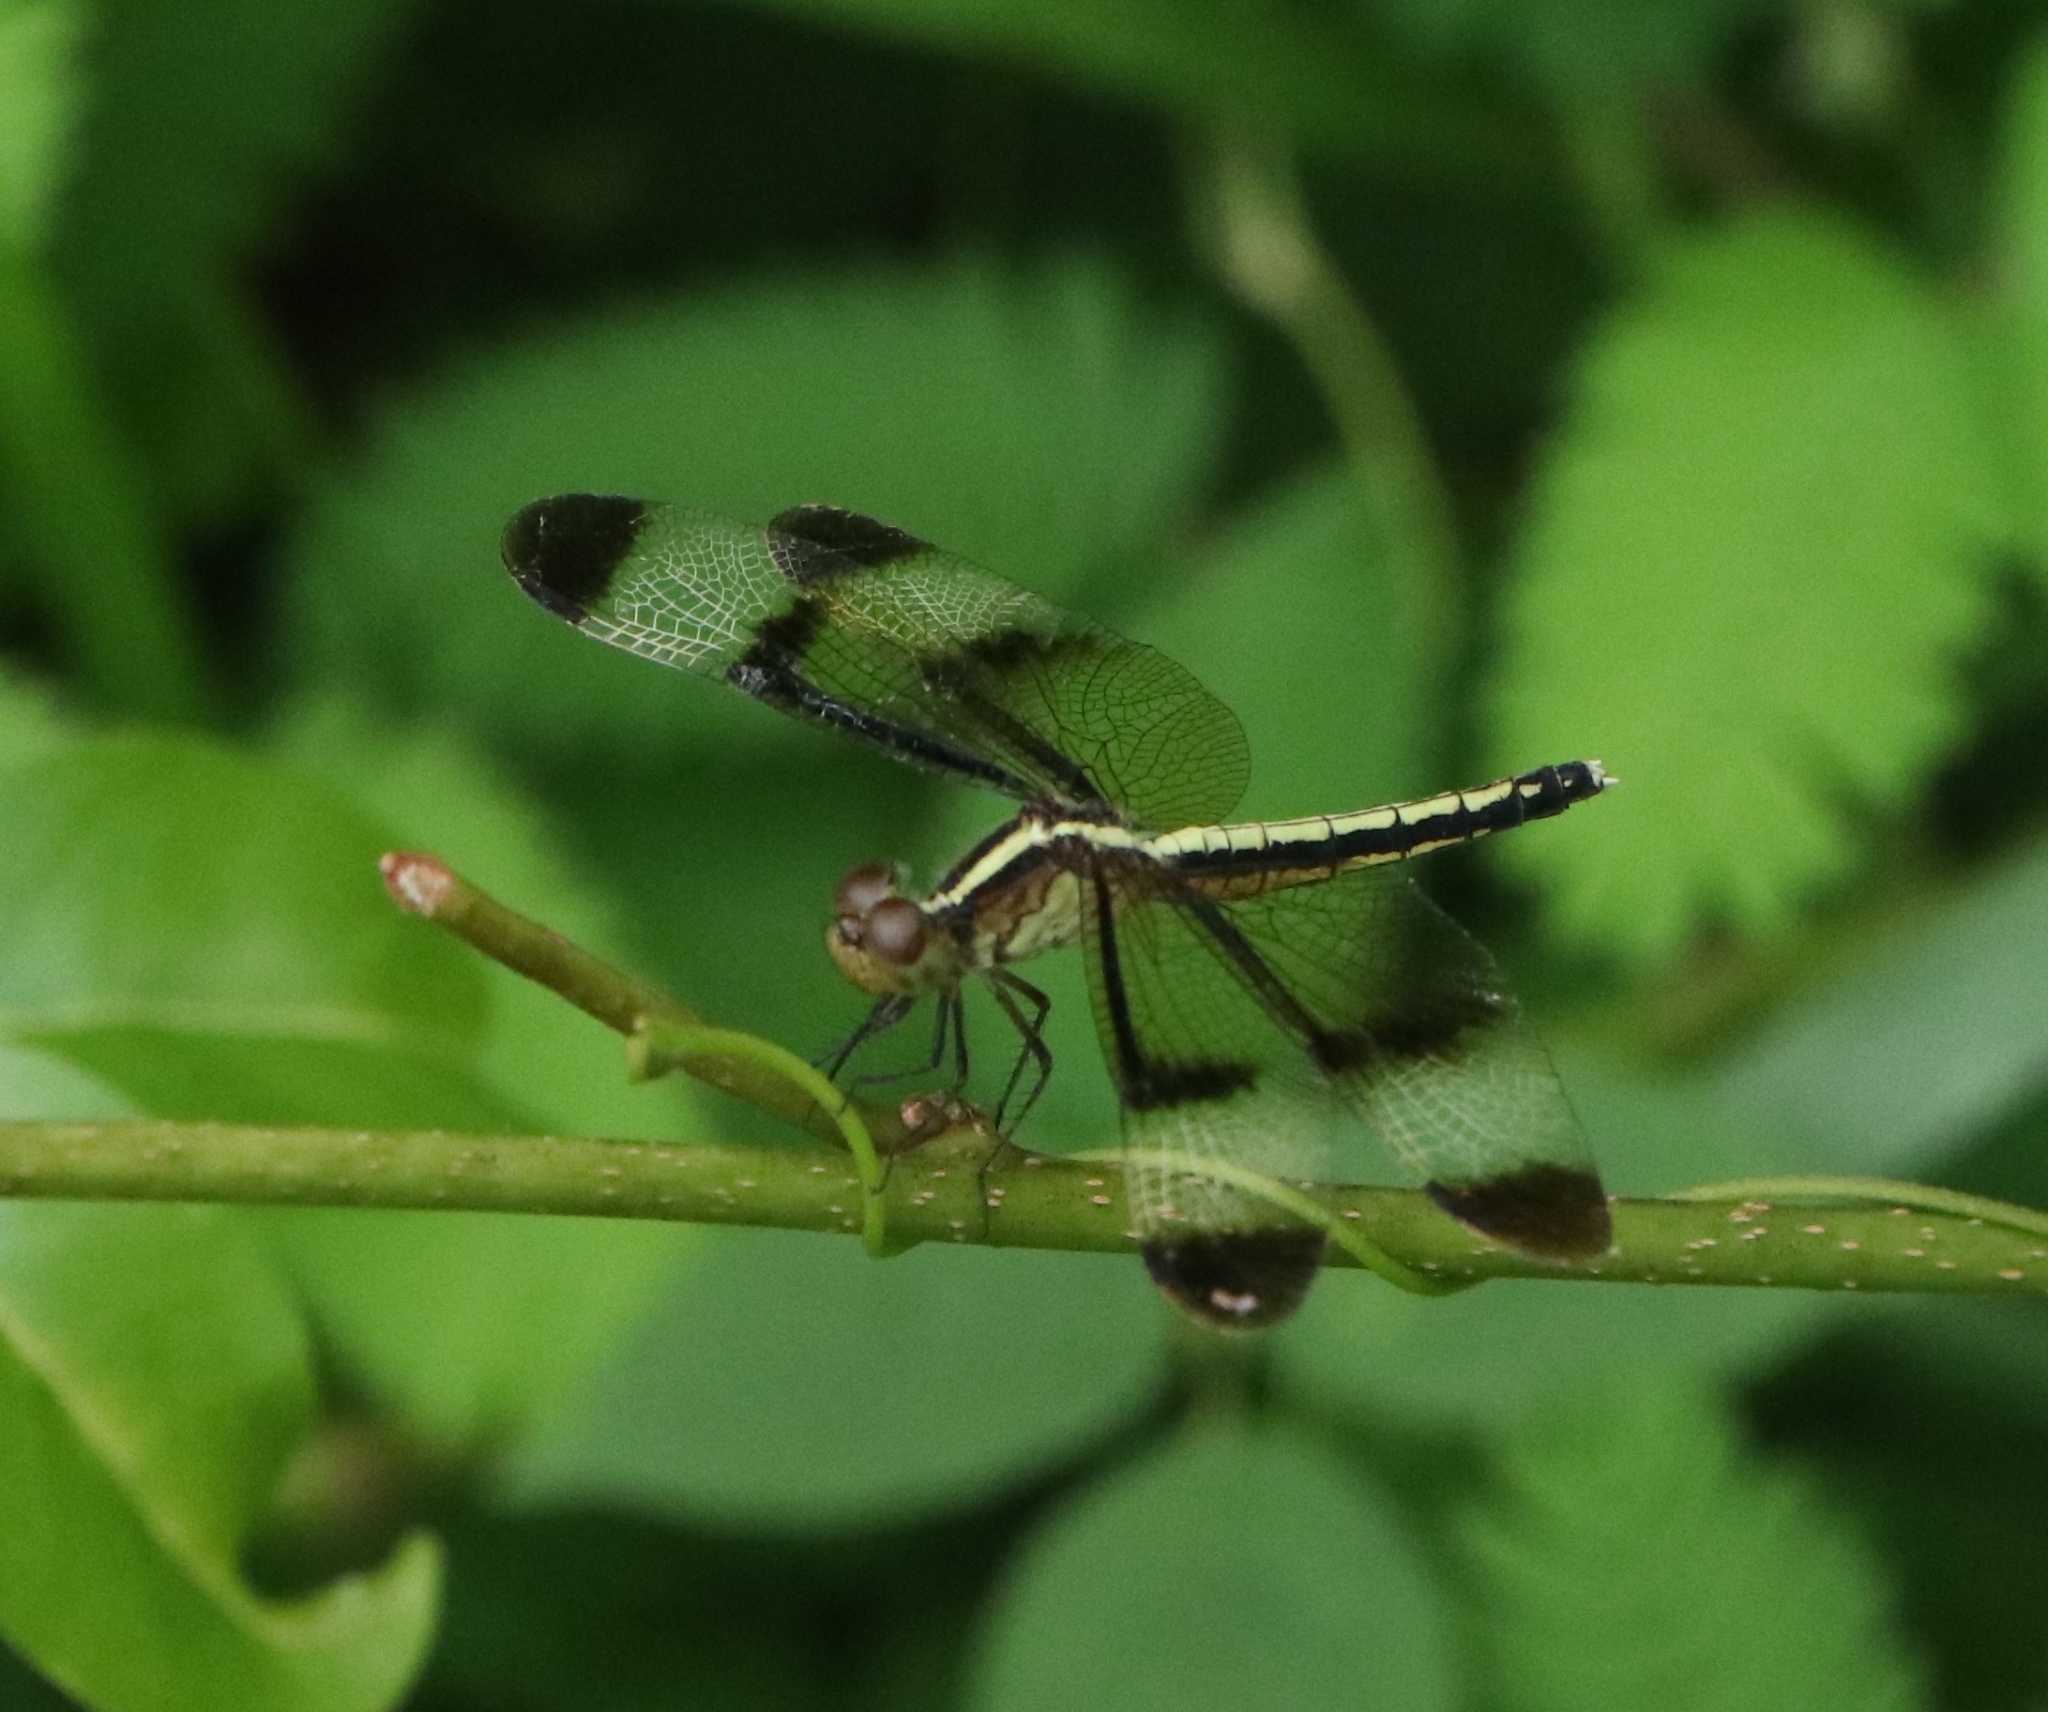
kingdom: Animalia
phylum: Arthropoda
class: Insecta
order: Odonata
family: Libellulidae
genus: Neurothemis
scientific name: Neurothemis tullia
